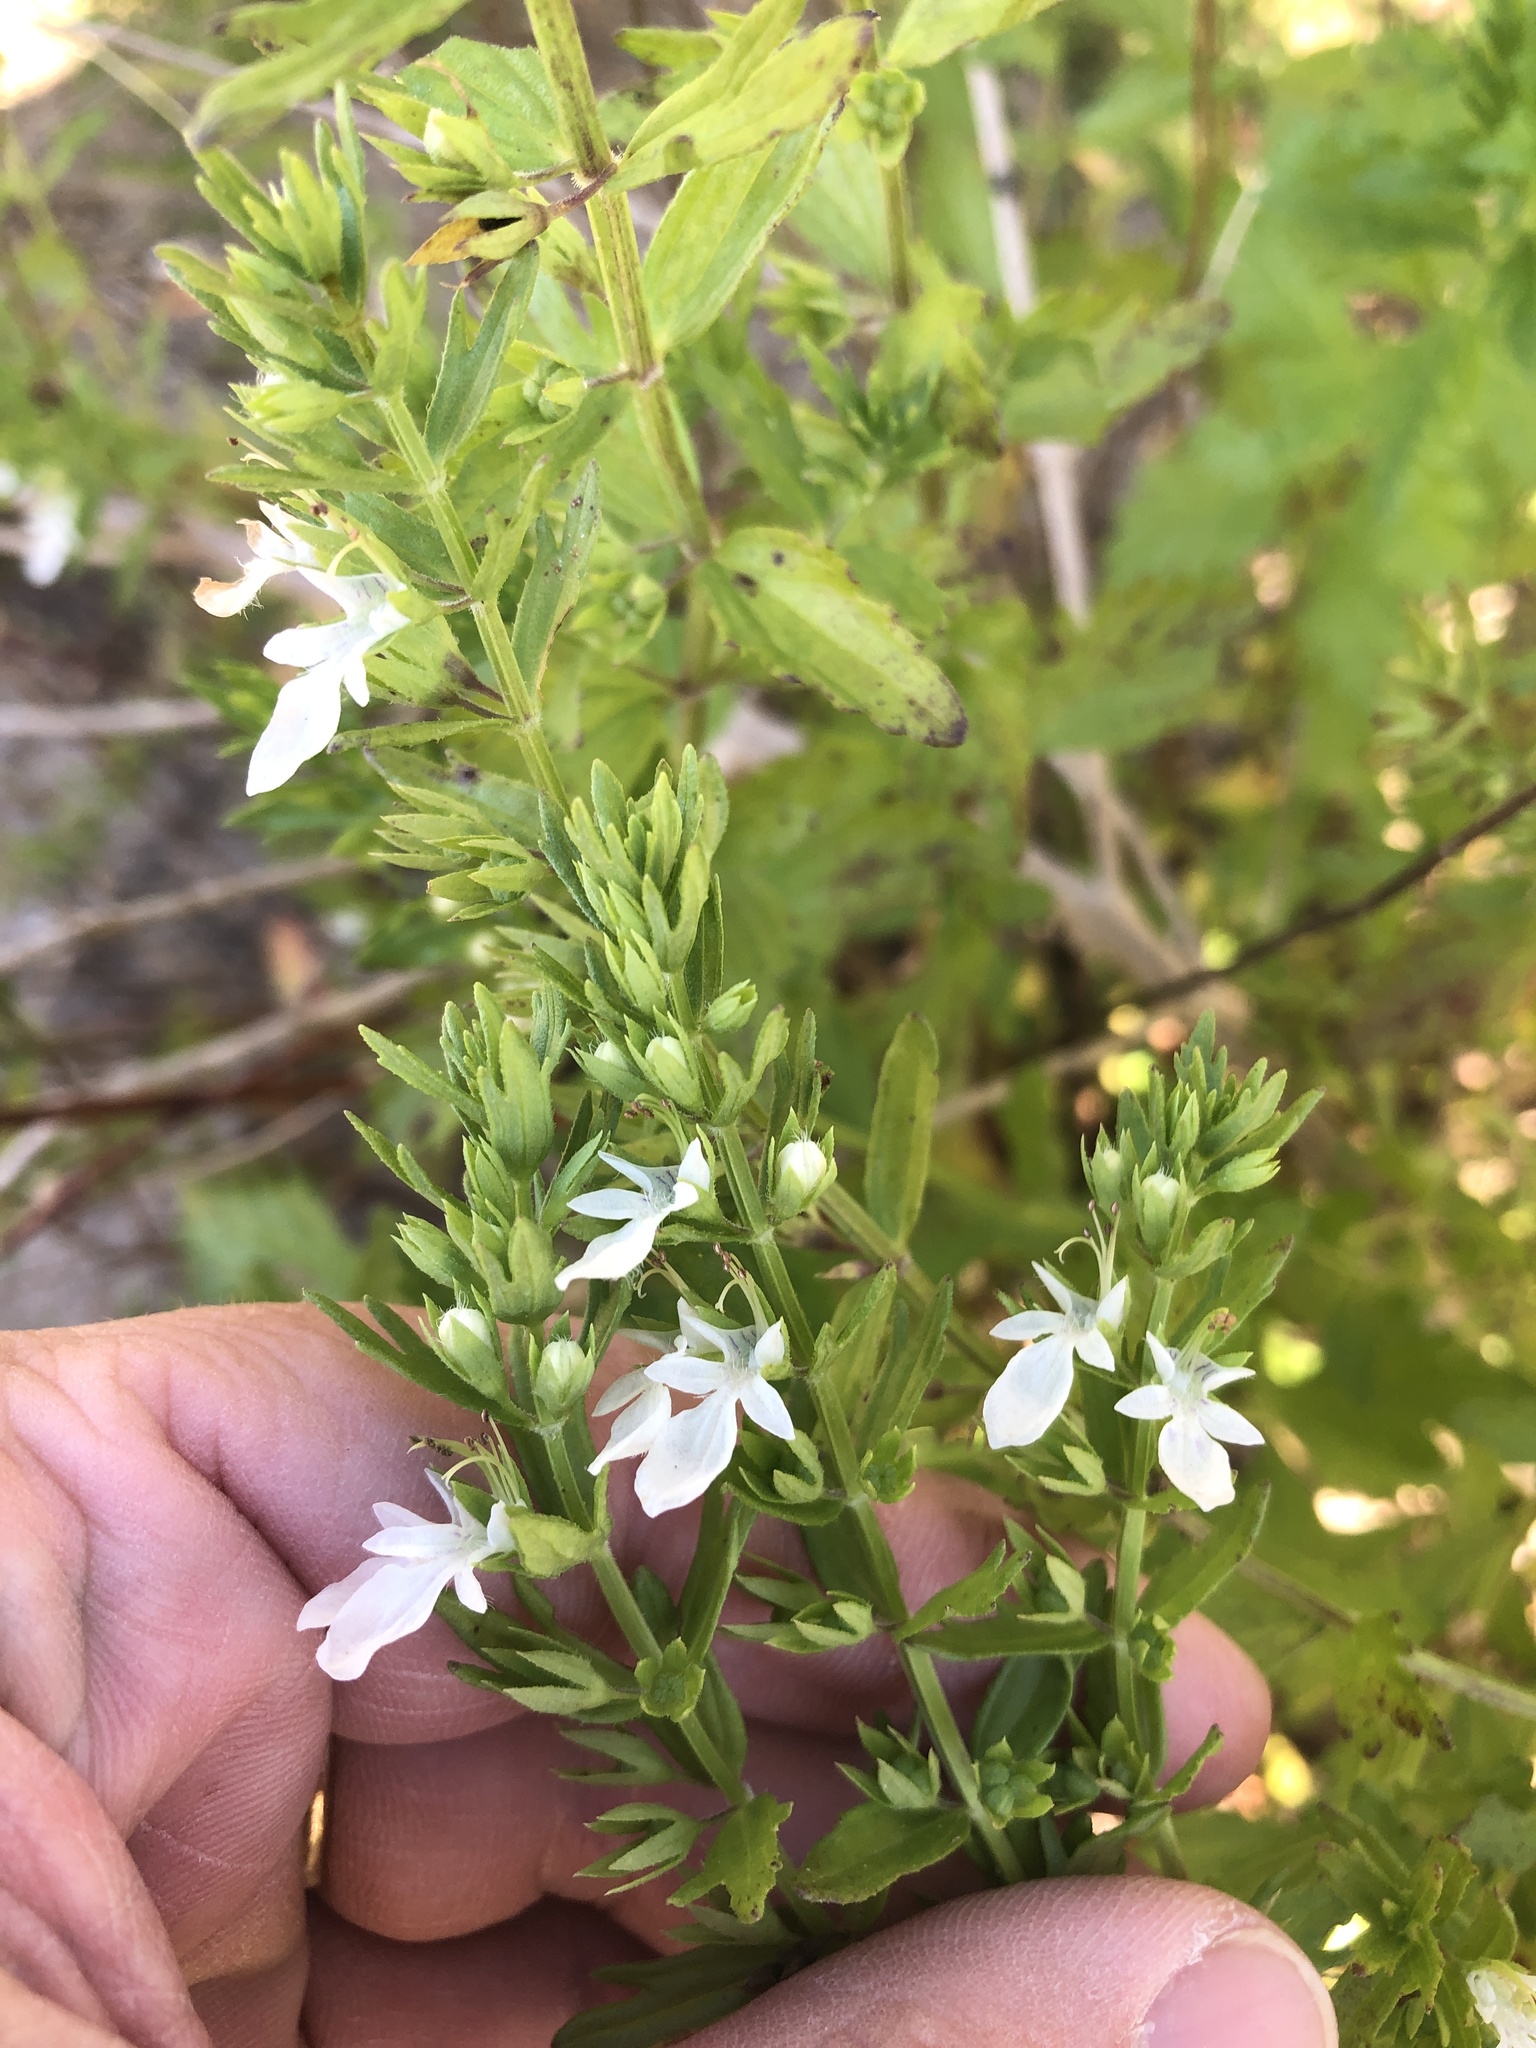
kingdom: Plantae
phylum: Tracheophyta
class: Magnoliopsida
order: Lamiales
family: Lamiaceae
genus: Teucrium
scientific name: Teucrium cubense
